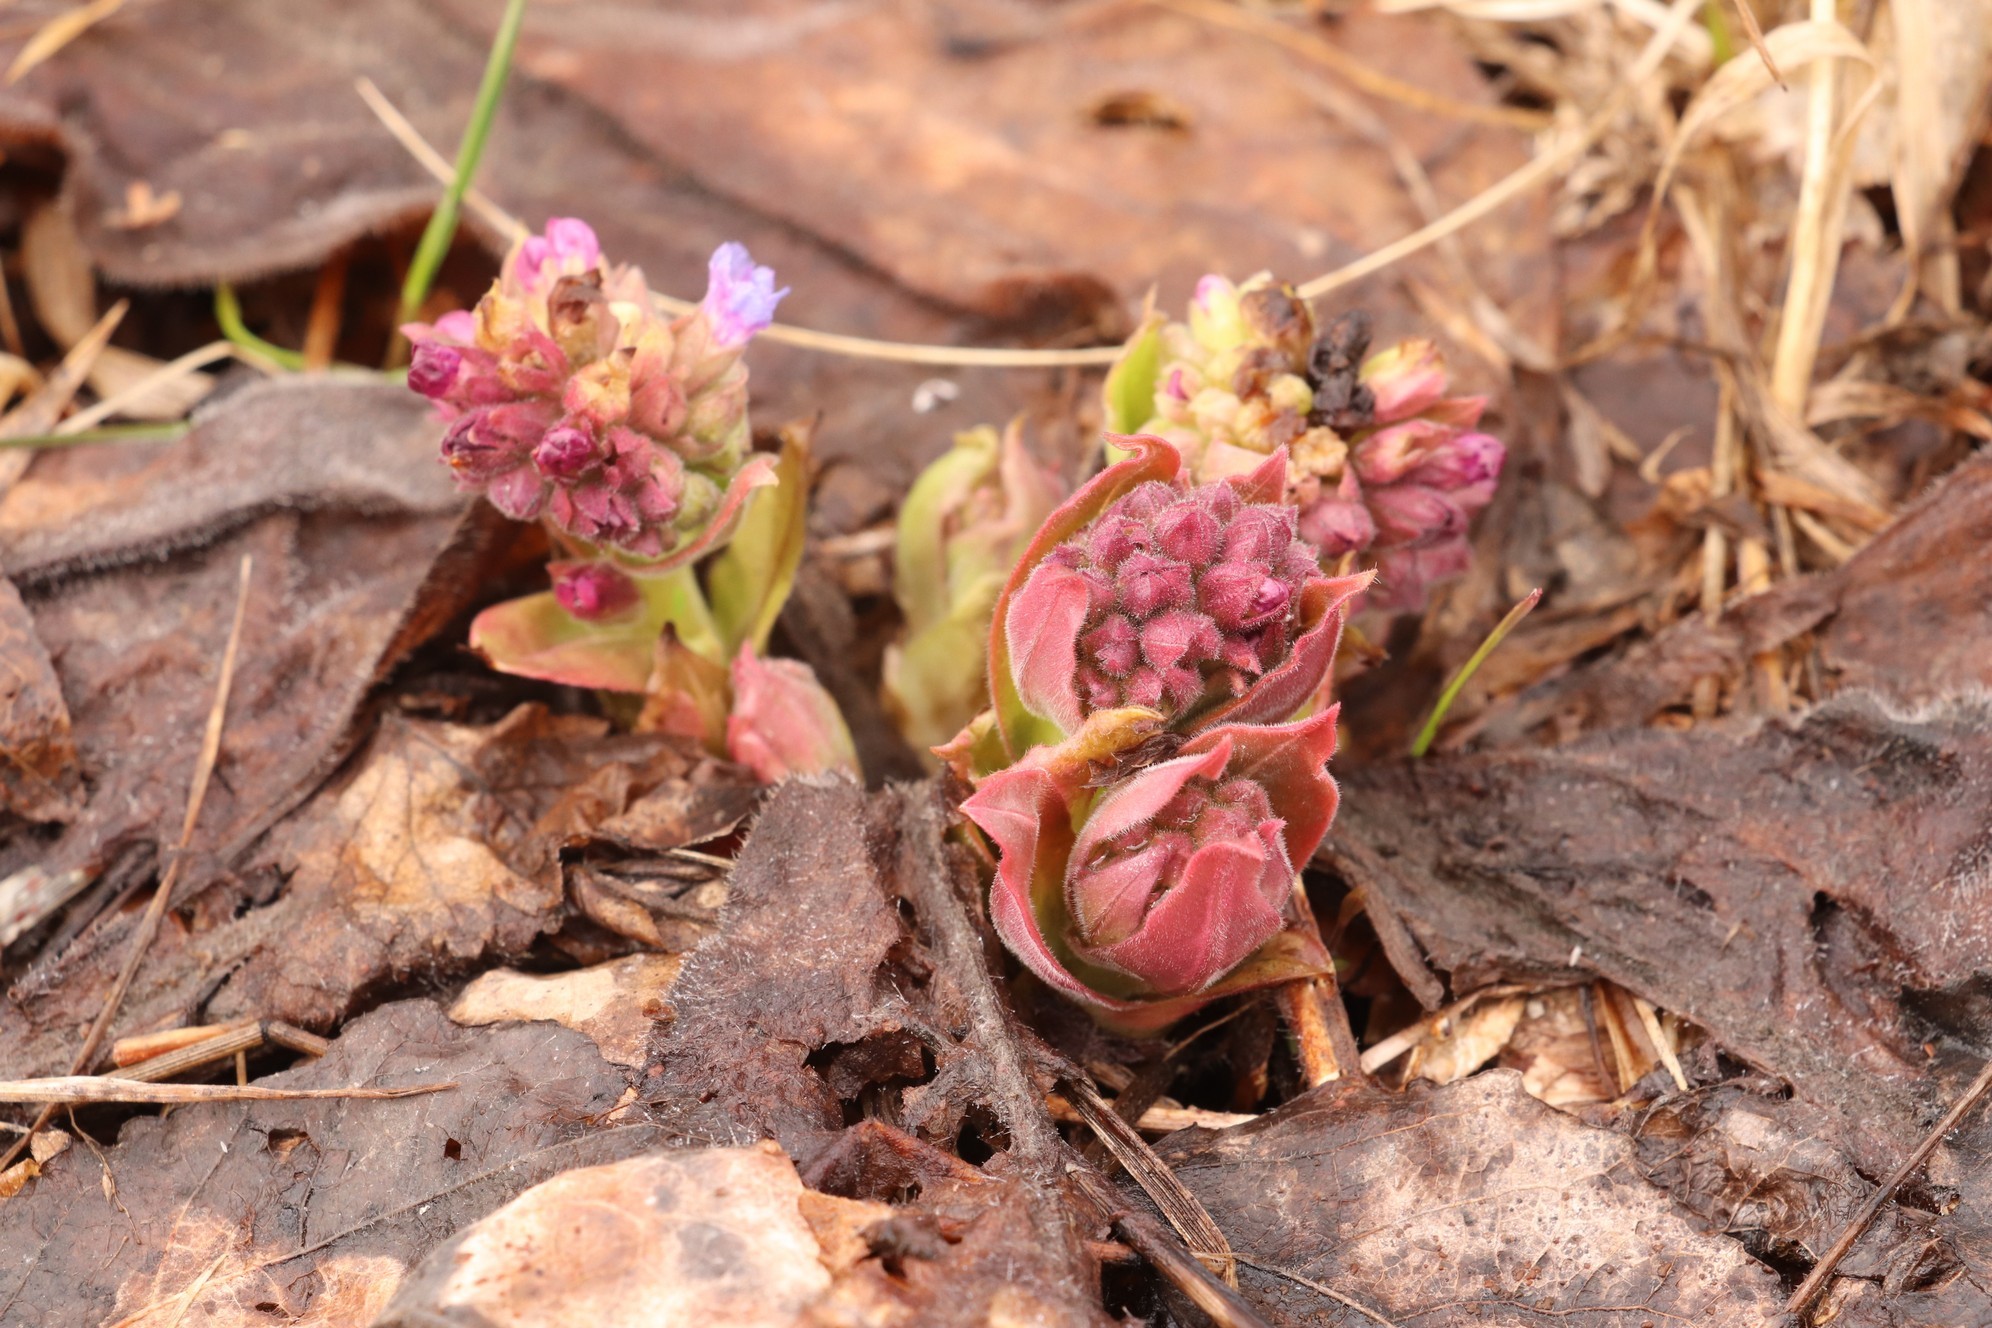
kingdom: Plantae
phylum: Tracheophyta
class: Magnoliopsida
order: Boraginales
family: Boraginaceae
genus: Pulmonaria
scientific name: Pulmonaria mollis
